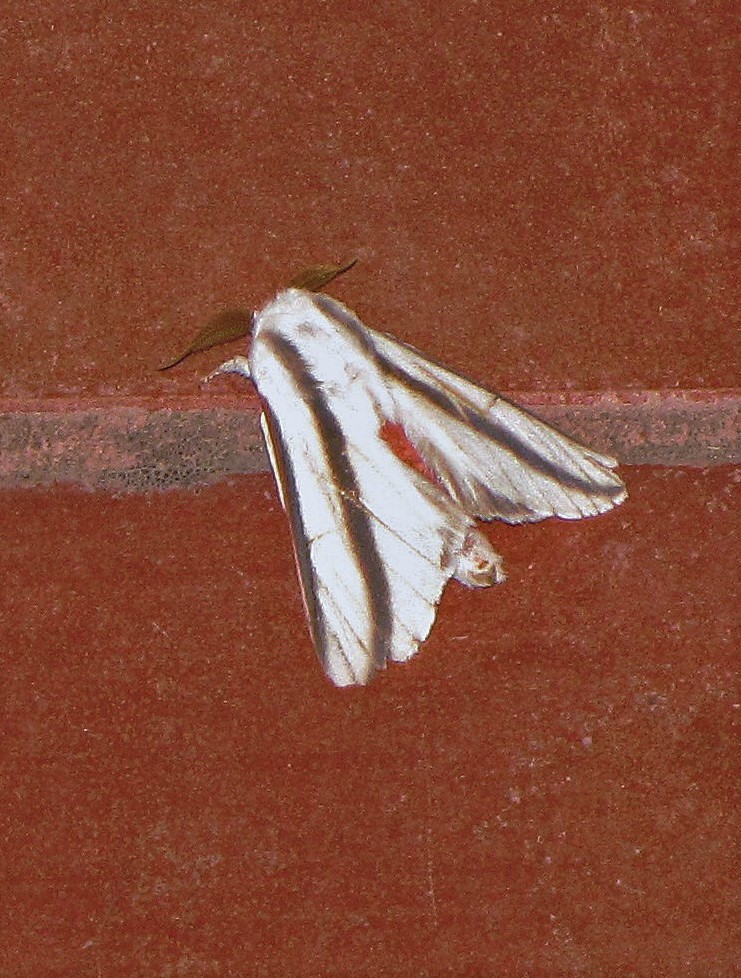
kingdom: Animalia
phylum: Arthropoda
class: Insecta
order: Lepidoptera
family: Saturniidae
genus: Giacomellia
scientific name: Giacomellia bilineata
